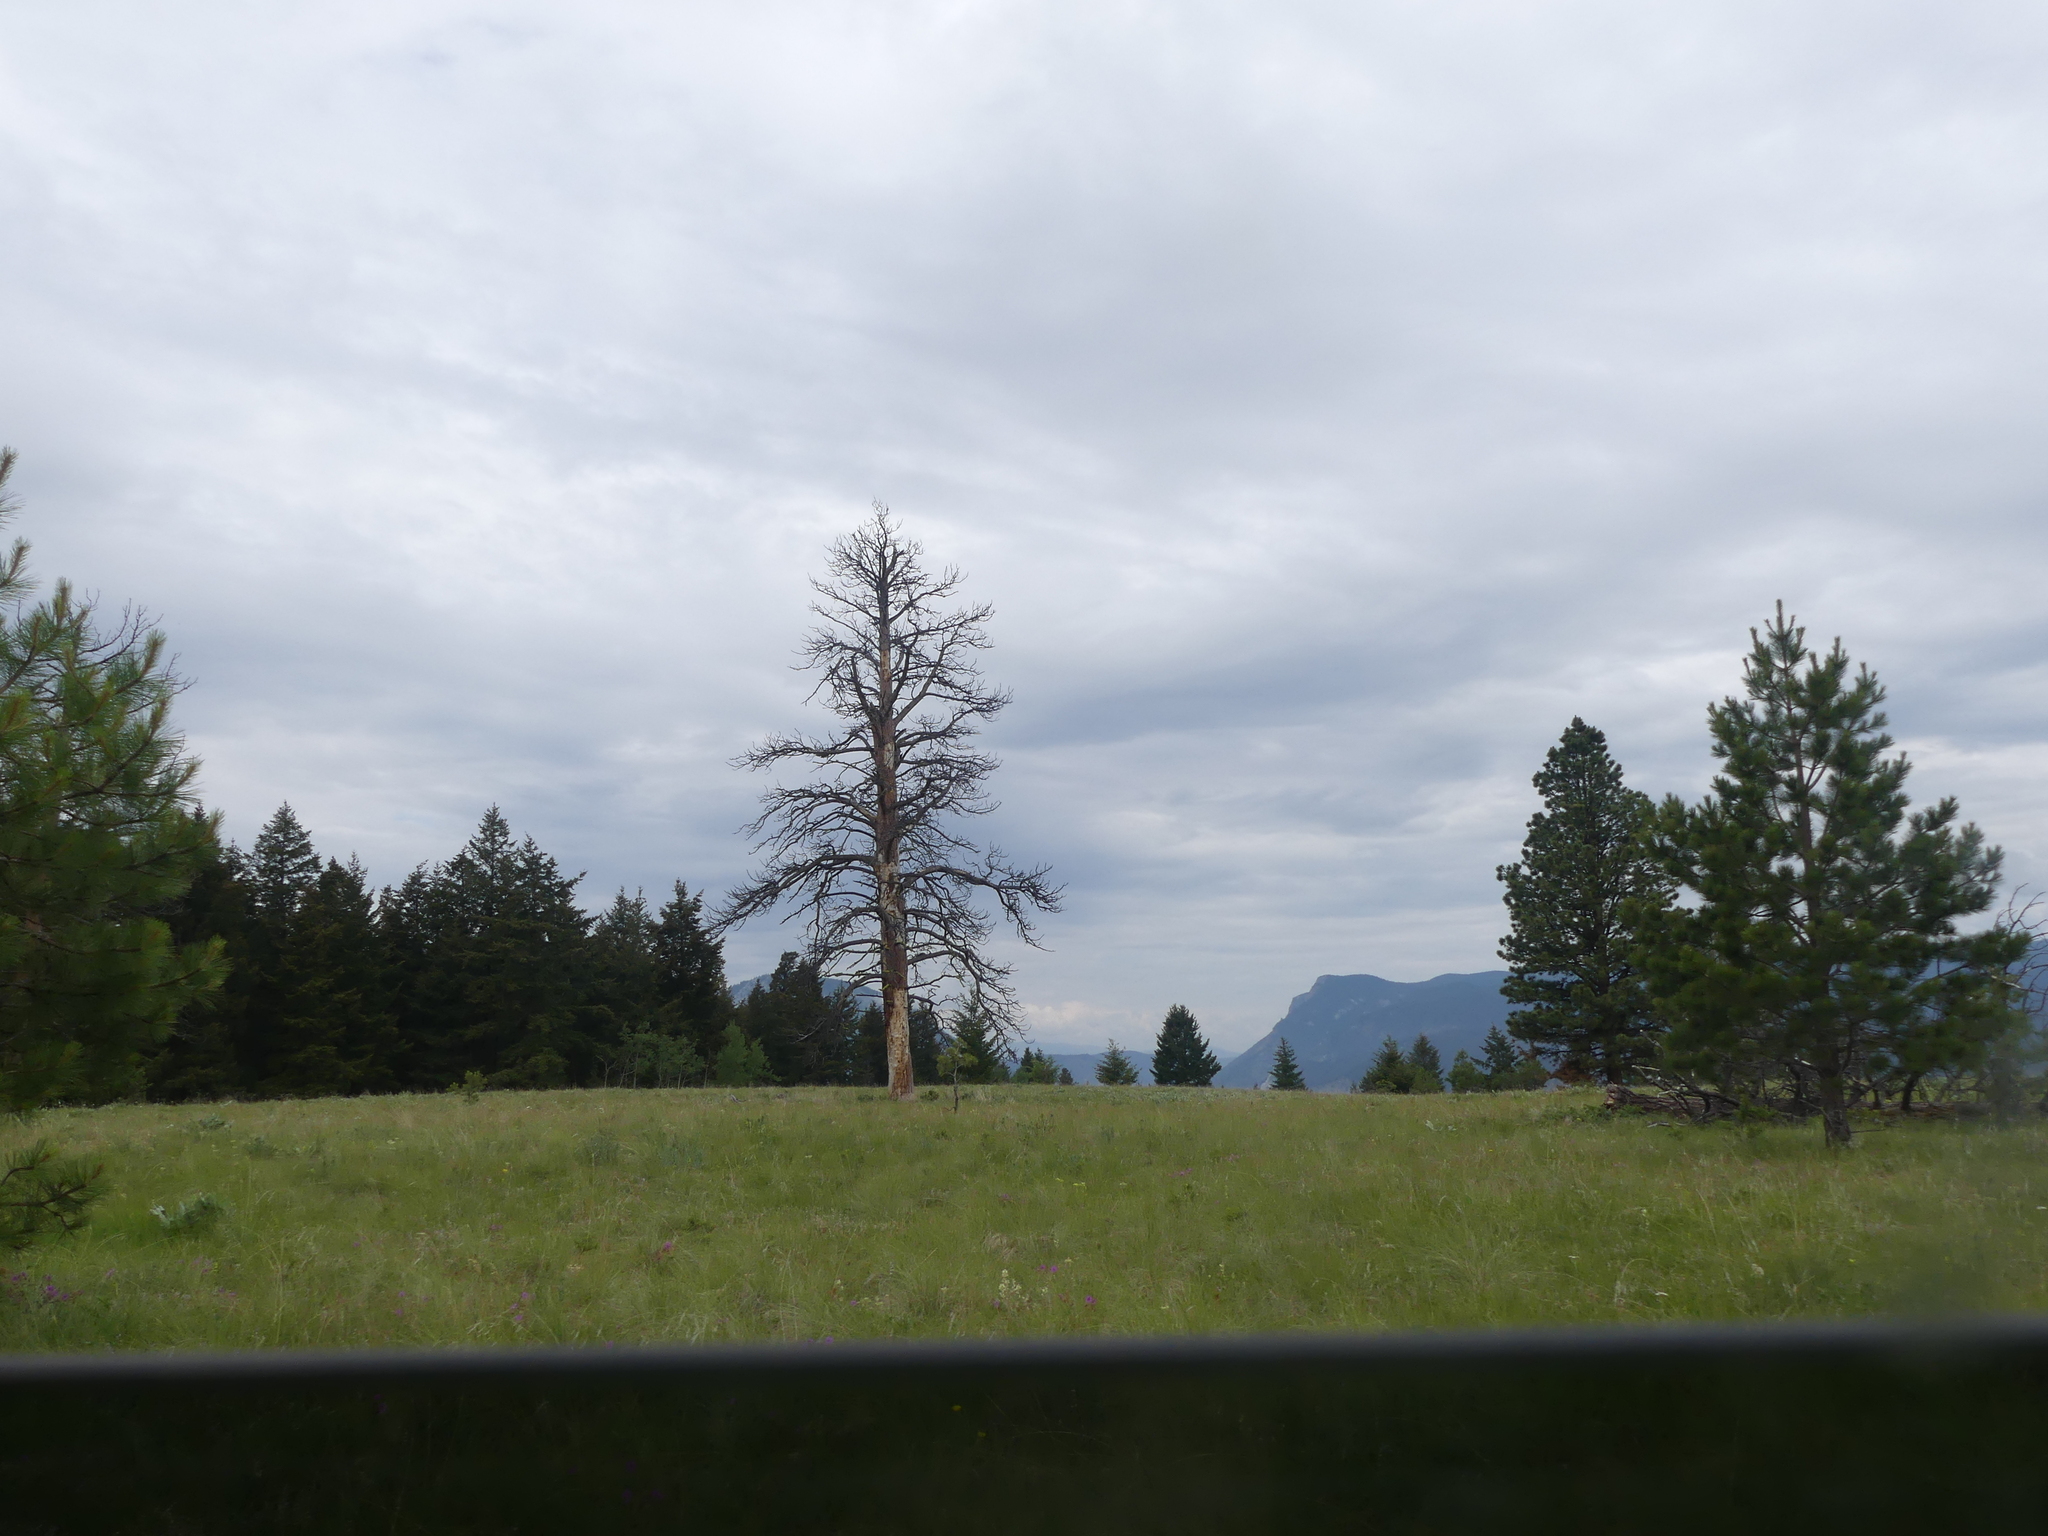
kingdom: Plantae
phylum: Tracheophyta
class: Pinopsida
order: Pinales
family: Pinaceae
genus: Pinus
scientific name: Pinus ponderosa
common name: Western yellow-pine
